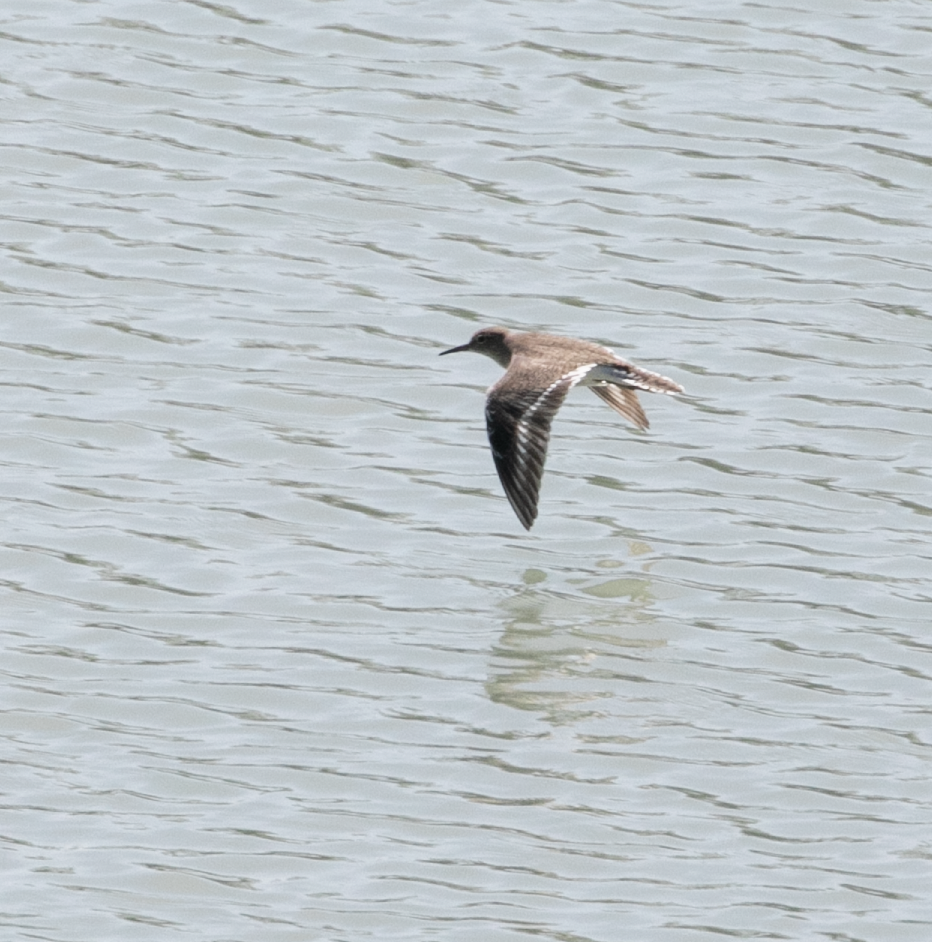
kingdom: Animalia
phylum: Chordata
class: Aves
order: Charadriiformes
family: Scolopacidae
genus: Actitis
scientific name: Actitis hypoleucos
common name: Common sandpiper
